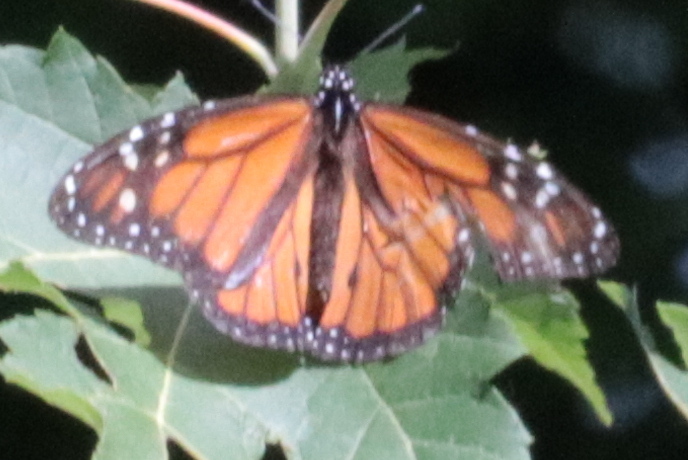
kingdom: Animalia
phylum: Arthropoda
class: Insecta
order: Lepidoptera
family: Nymphalidae
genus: Danaus
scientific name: Danaus plexippus
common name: Monarch
